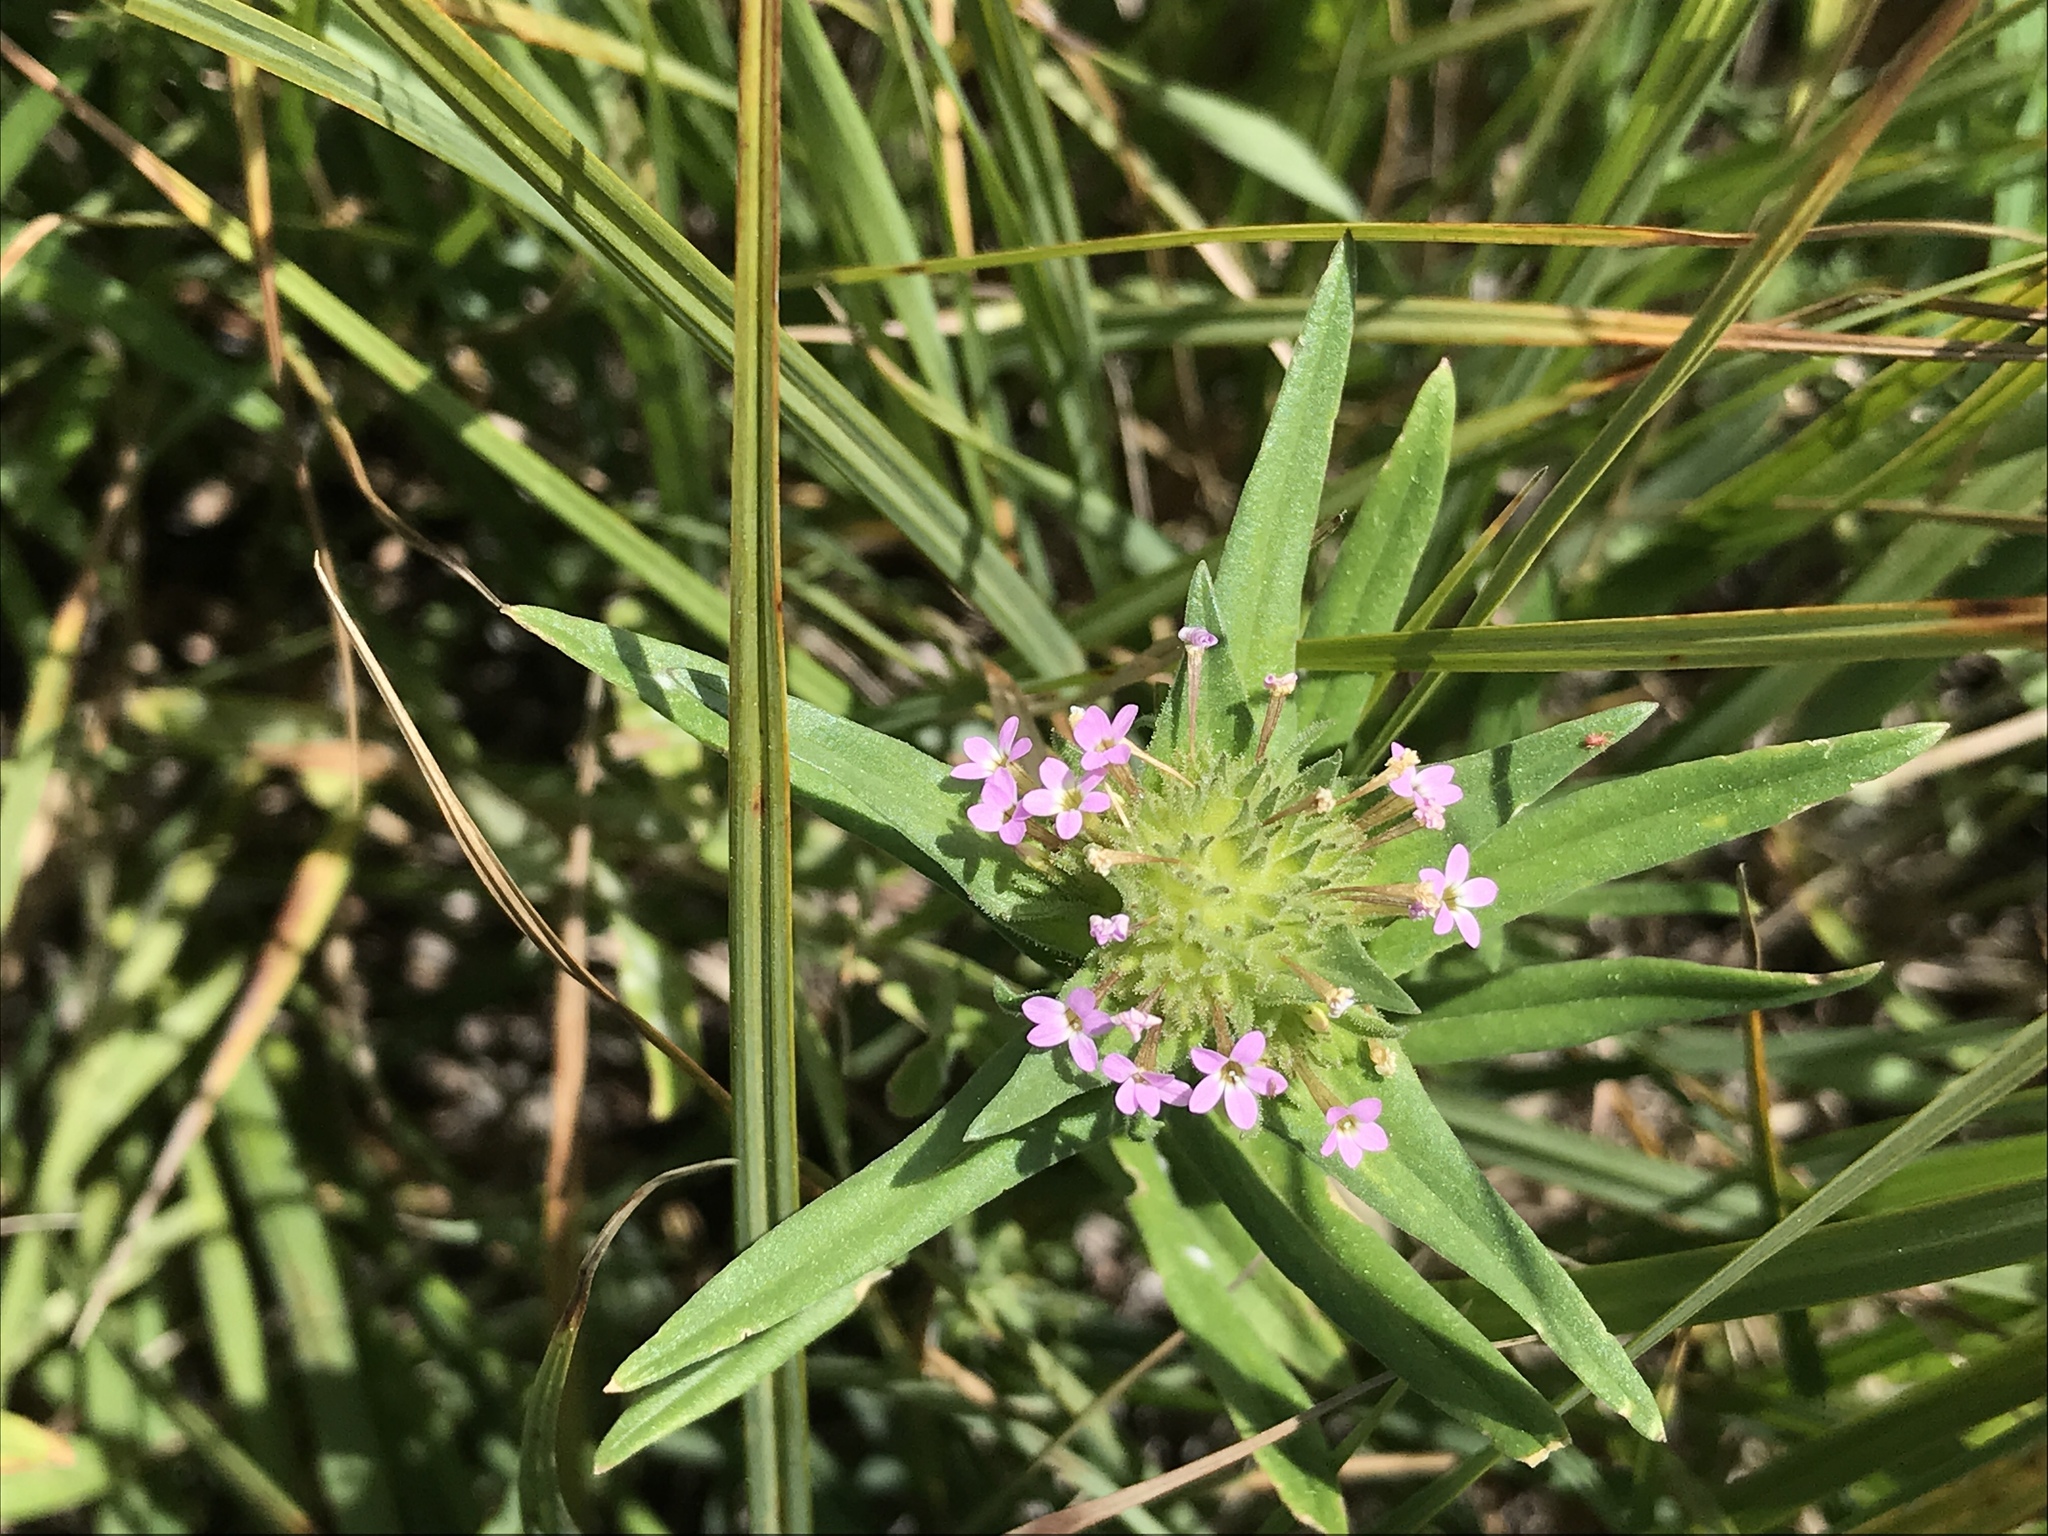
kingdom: Plantae
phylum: Tracheophyta
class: Magnoliopsida
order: Ericales
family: Polemoniaceae
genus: Collomia
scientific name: Collomia linearis
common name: Tiny trumpet
